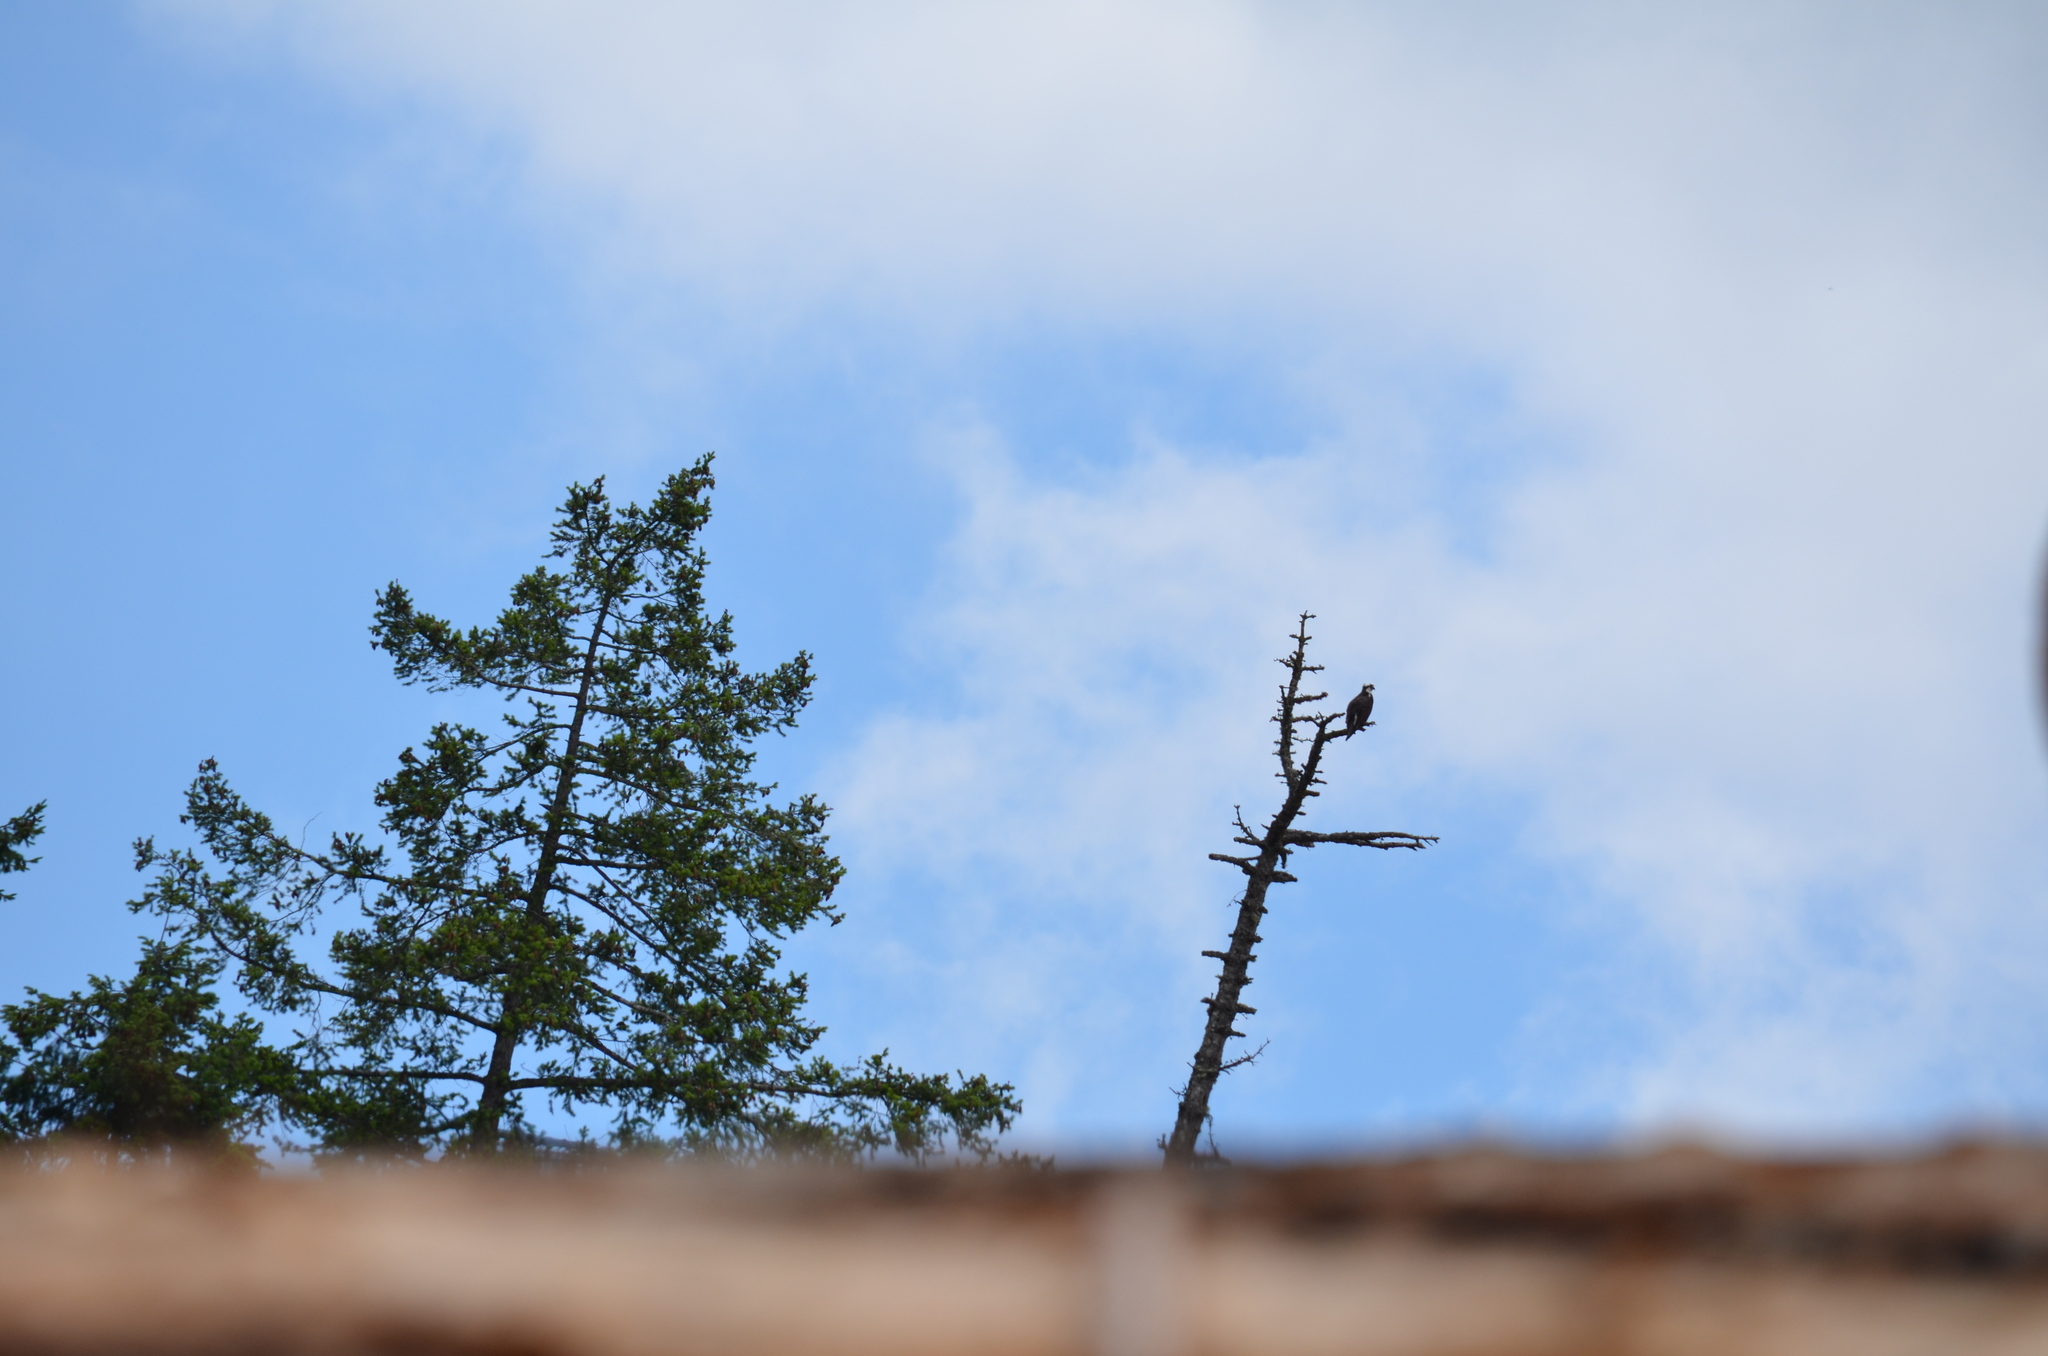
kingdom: Animalia
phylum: Chordata
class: Aves
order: Accipitriformes
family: Pandionidae
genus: Pandion
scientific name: Pandion haliaetus
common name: Osprey
